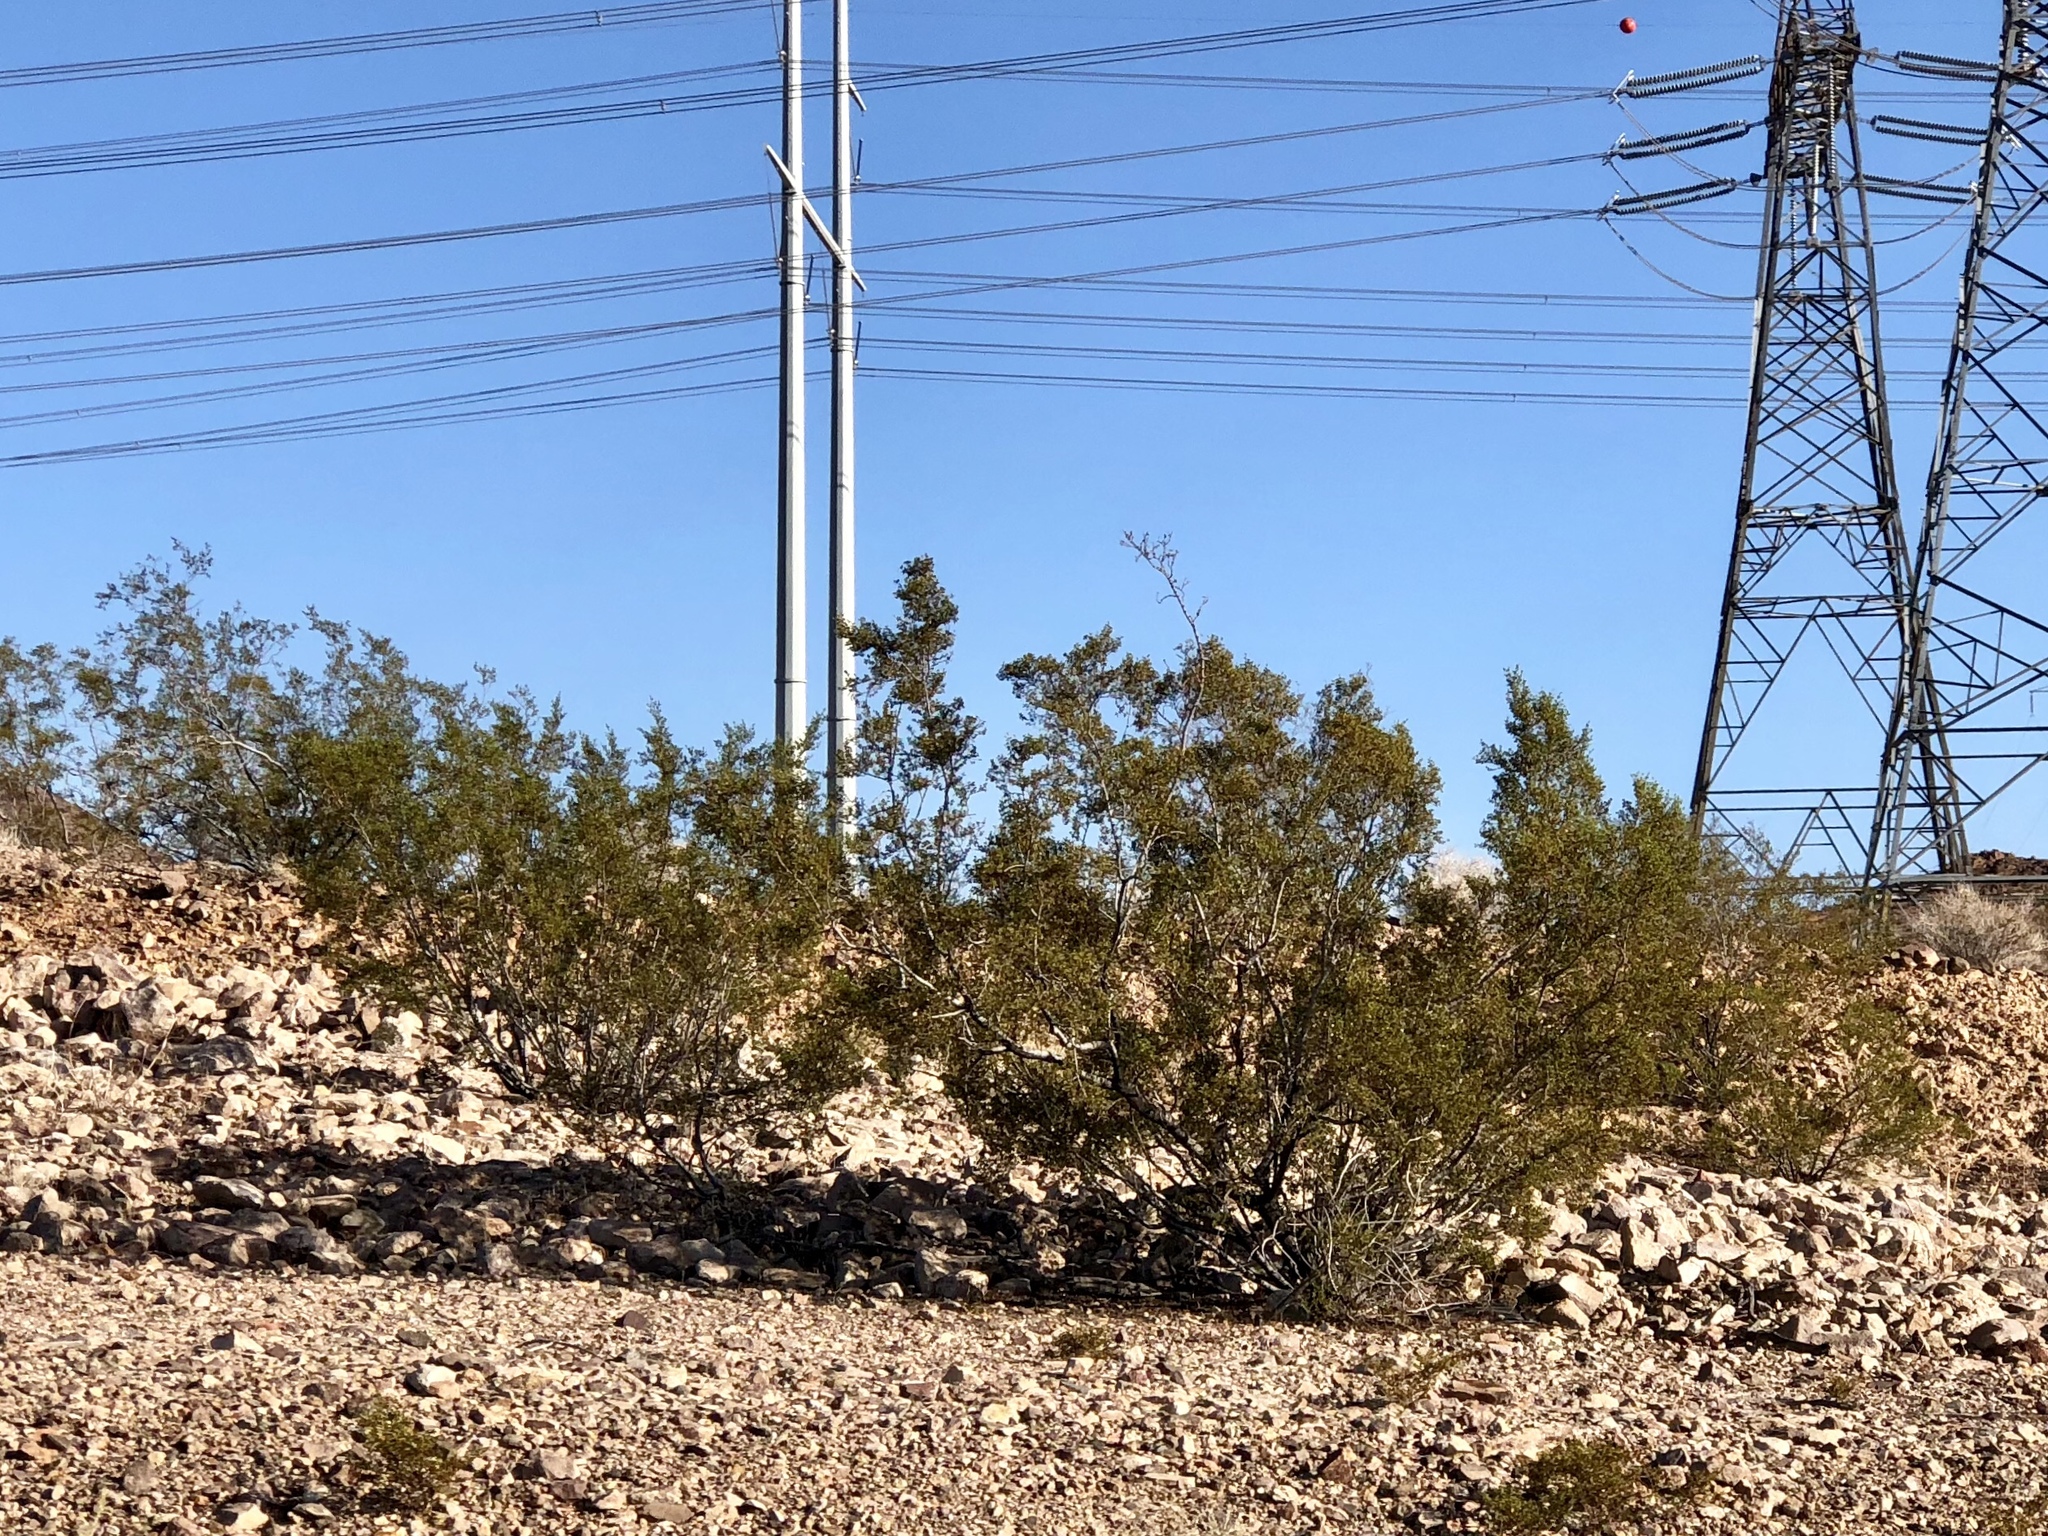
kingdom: Plantae
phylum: Tracheophyta
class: Magnoliopsida
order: Zygophyllales
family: Zygophyllaceae
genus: Larrea
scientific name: Larrea tridentata
